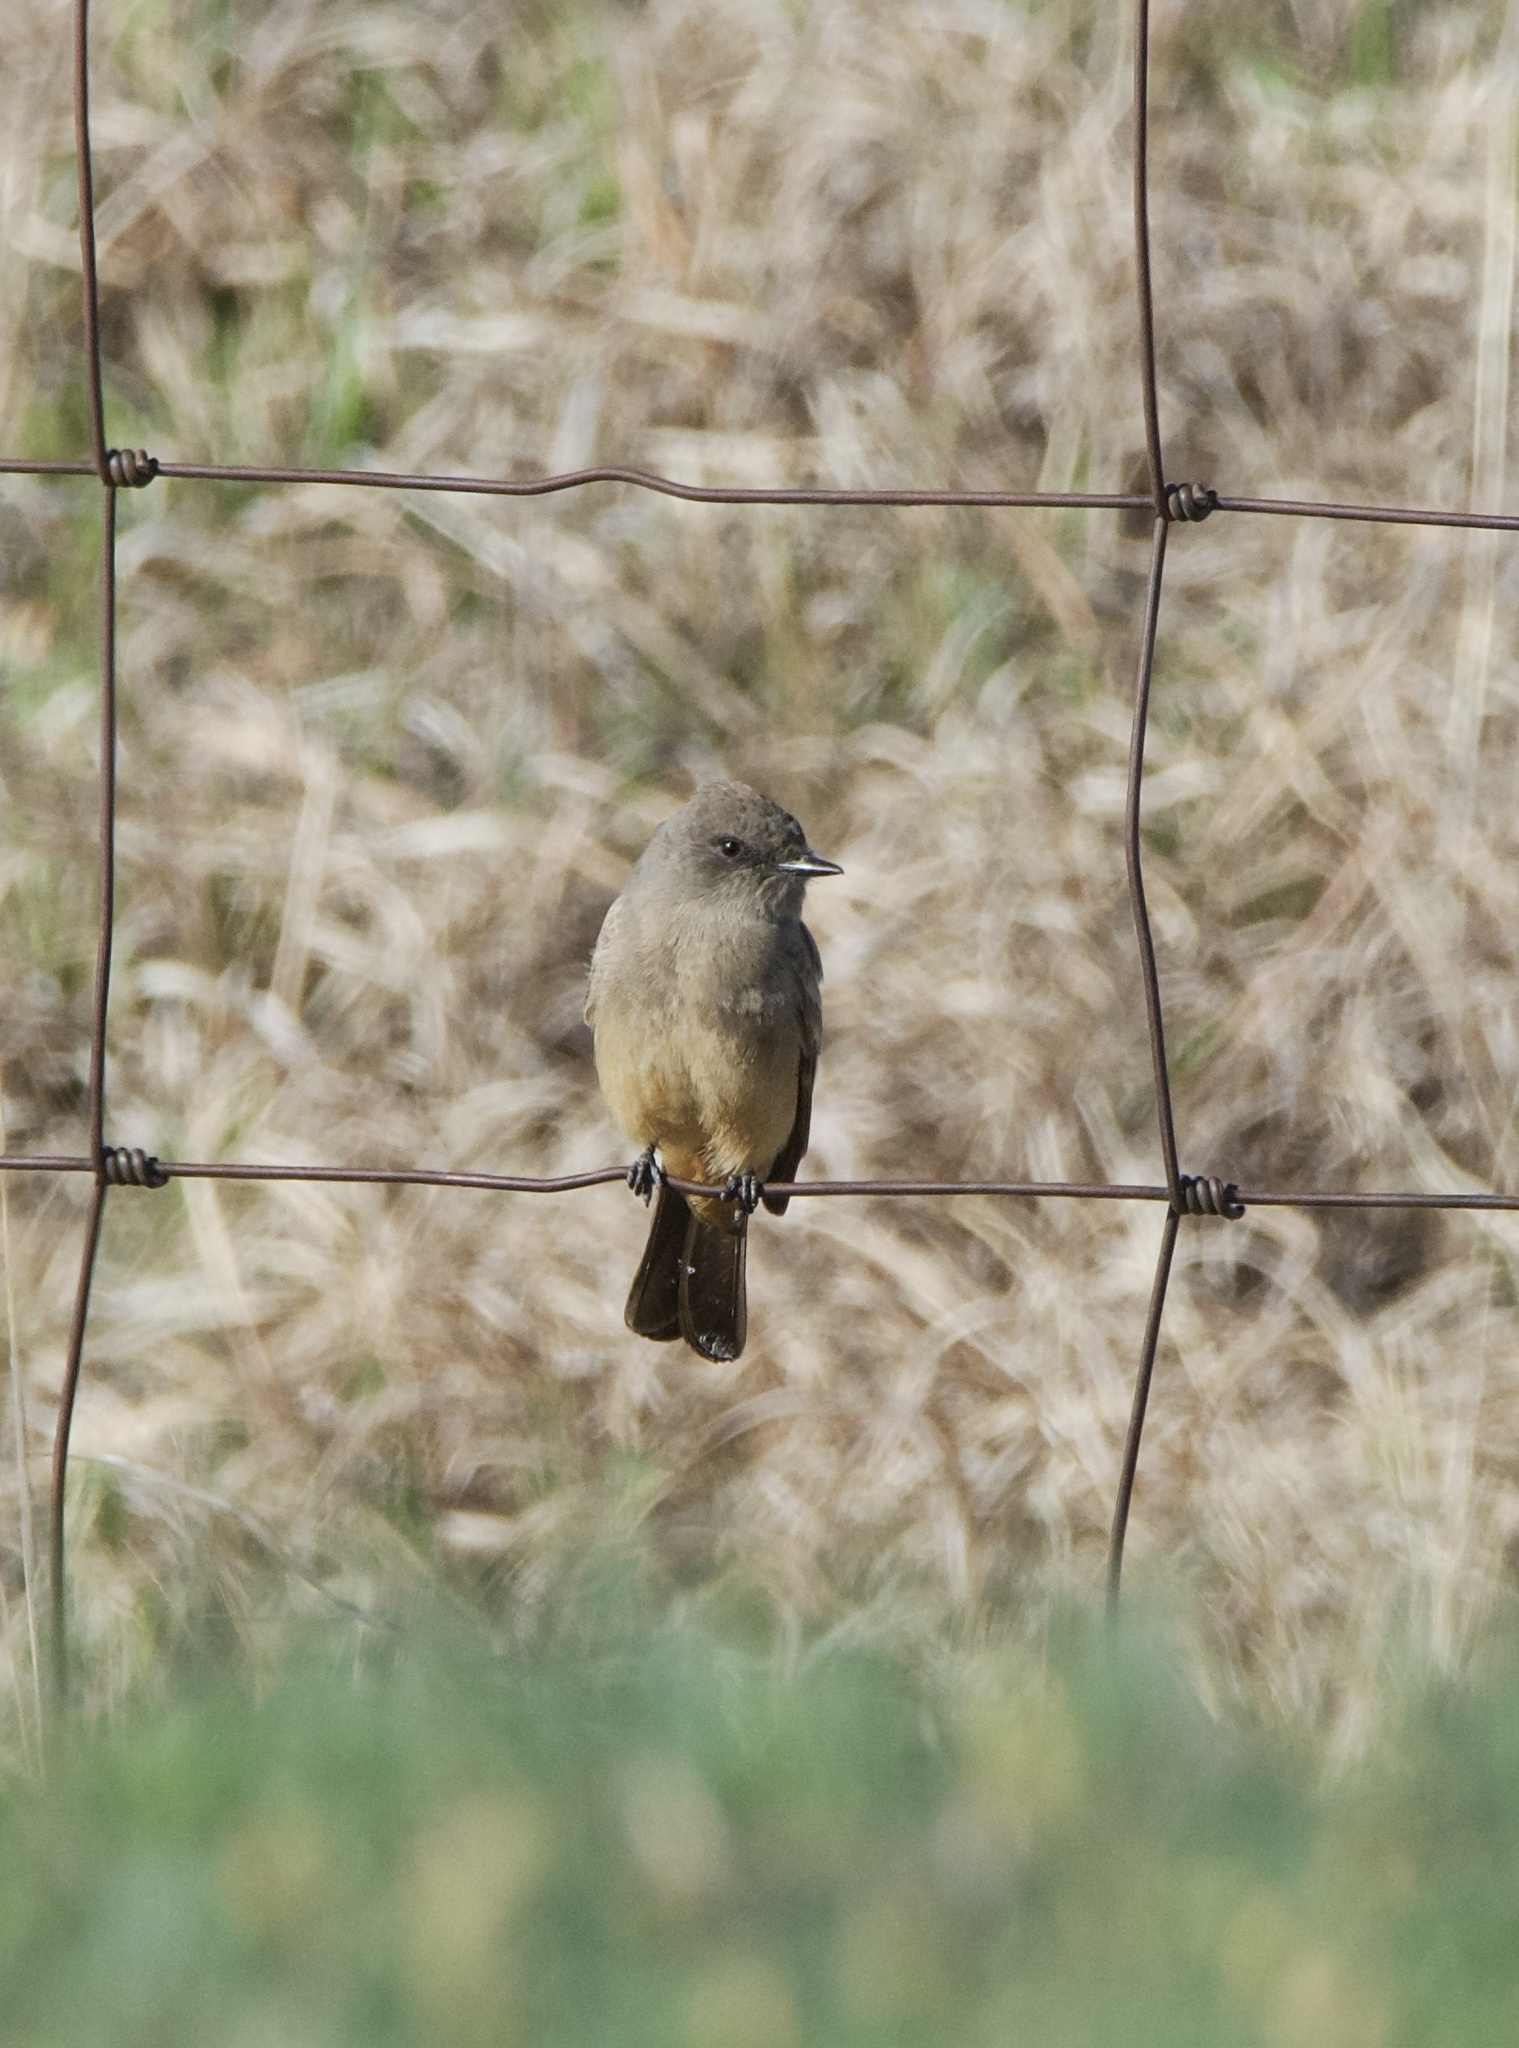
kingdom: Animalia
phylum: Chordata
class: Aves
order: Passeriformes
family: Tyrannidae
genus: Sayornis
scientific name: Sayornis saya
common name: Say's phoebe
